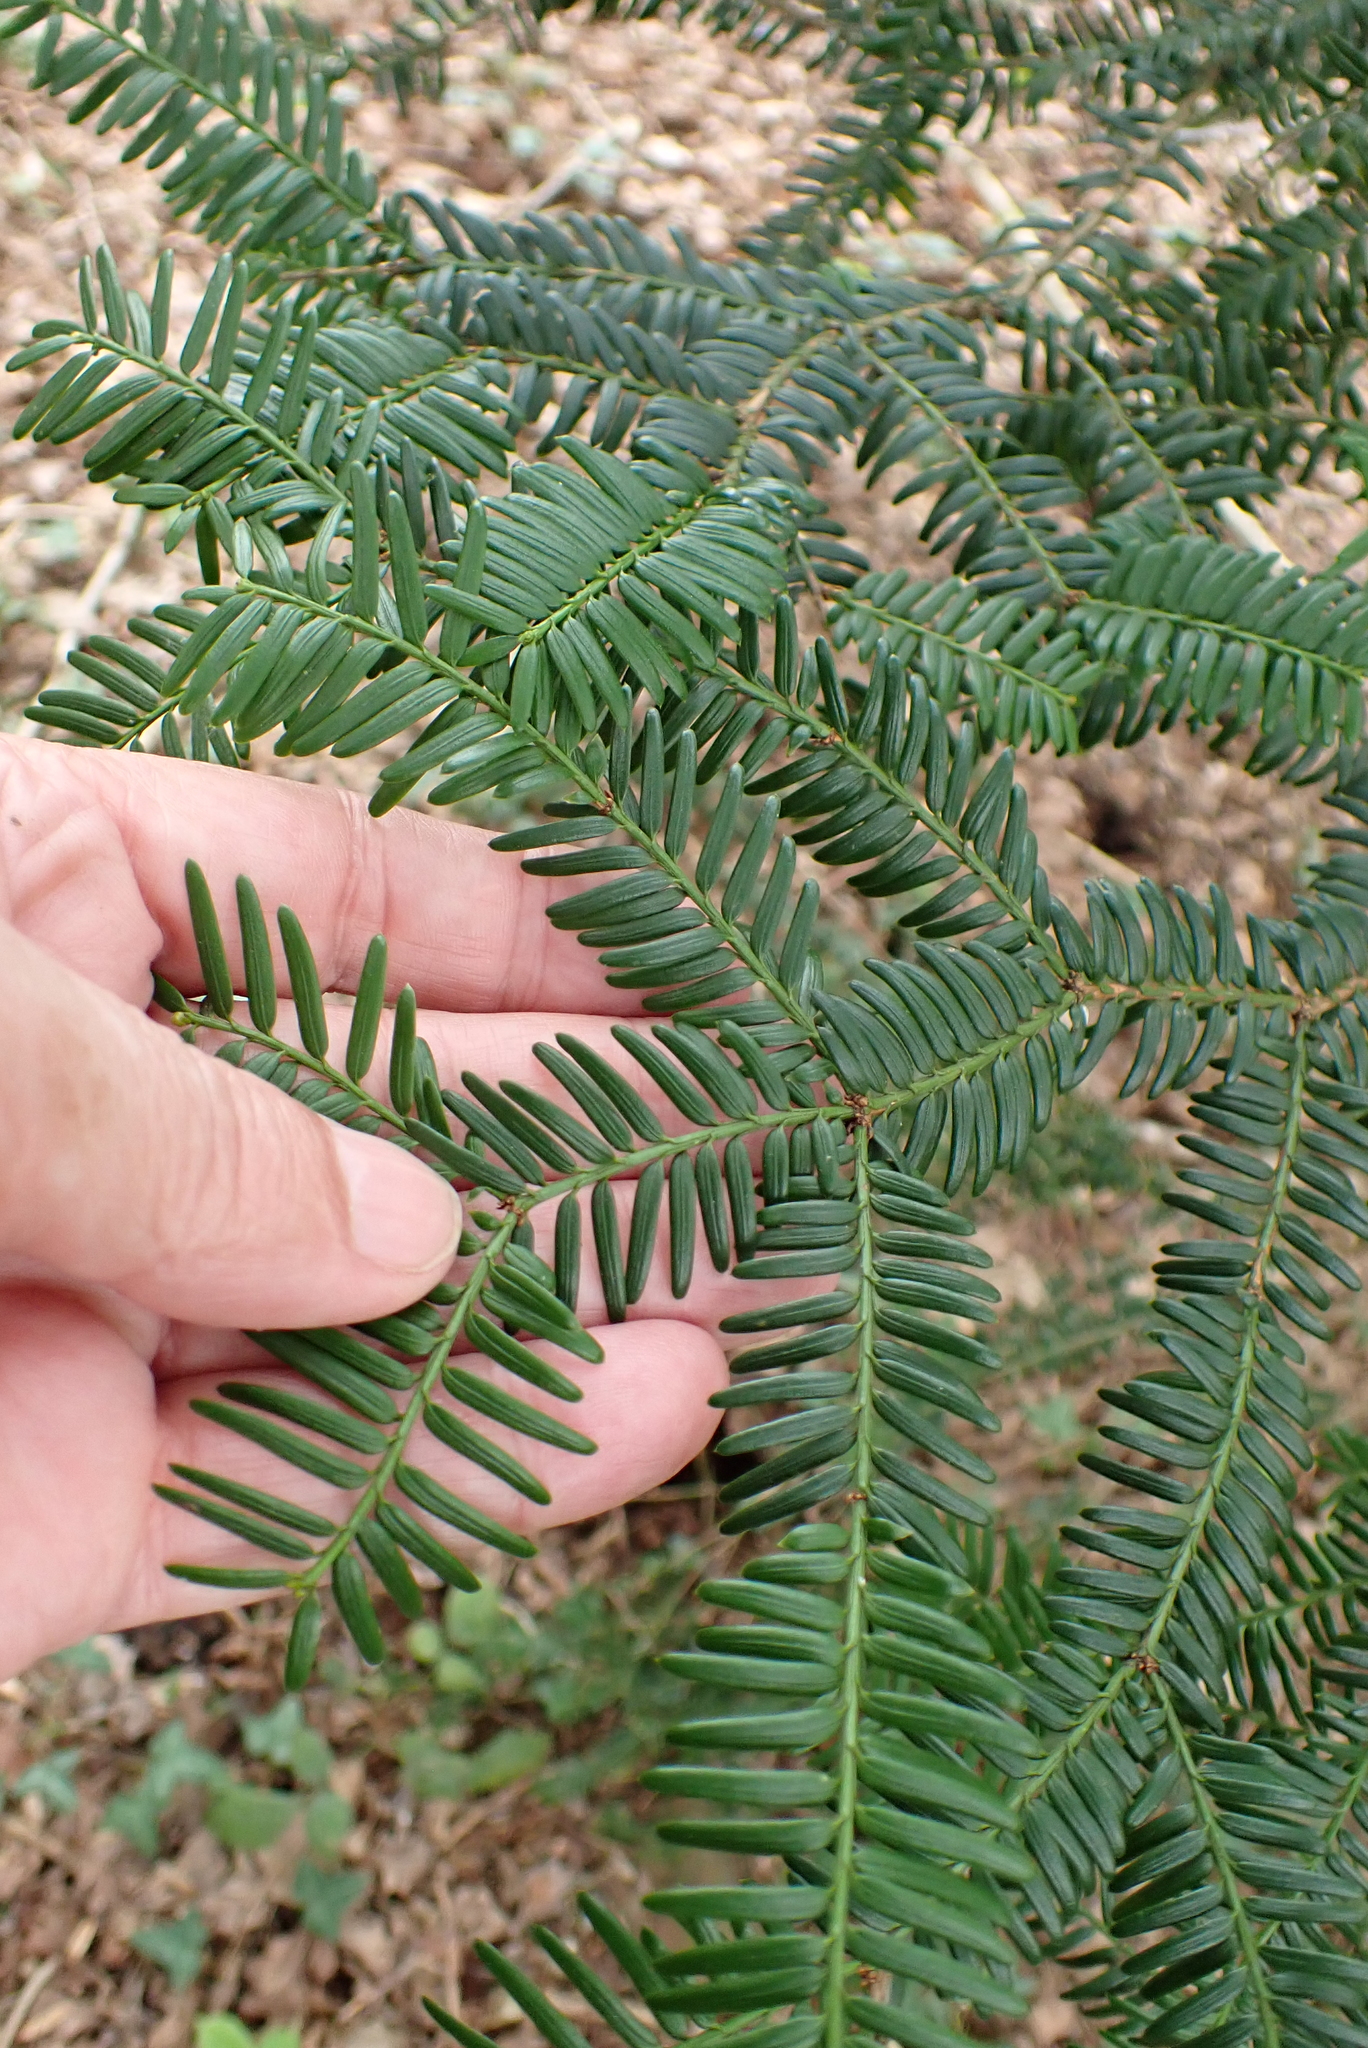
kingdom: Plantae
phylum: Tracheophyta
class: Pinopsida
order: Pinales
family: Taxaceae
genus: Taxus
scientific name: Taxus baccata
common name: Yew
